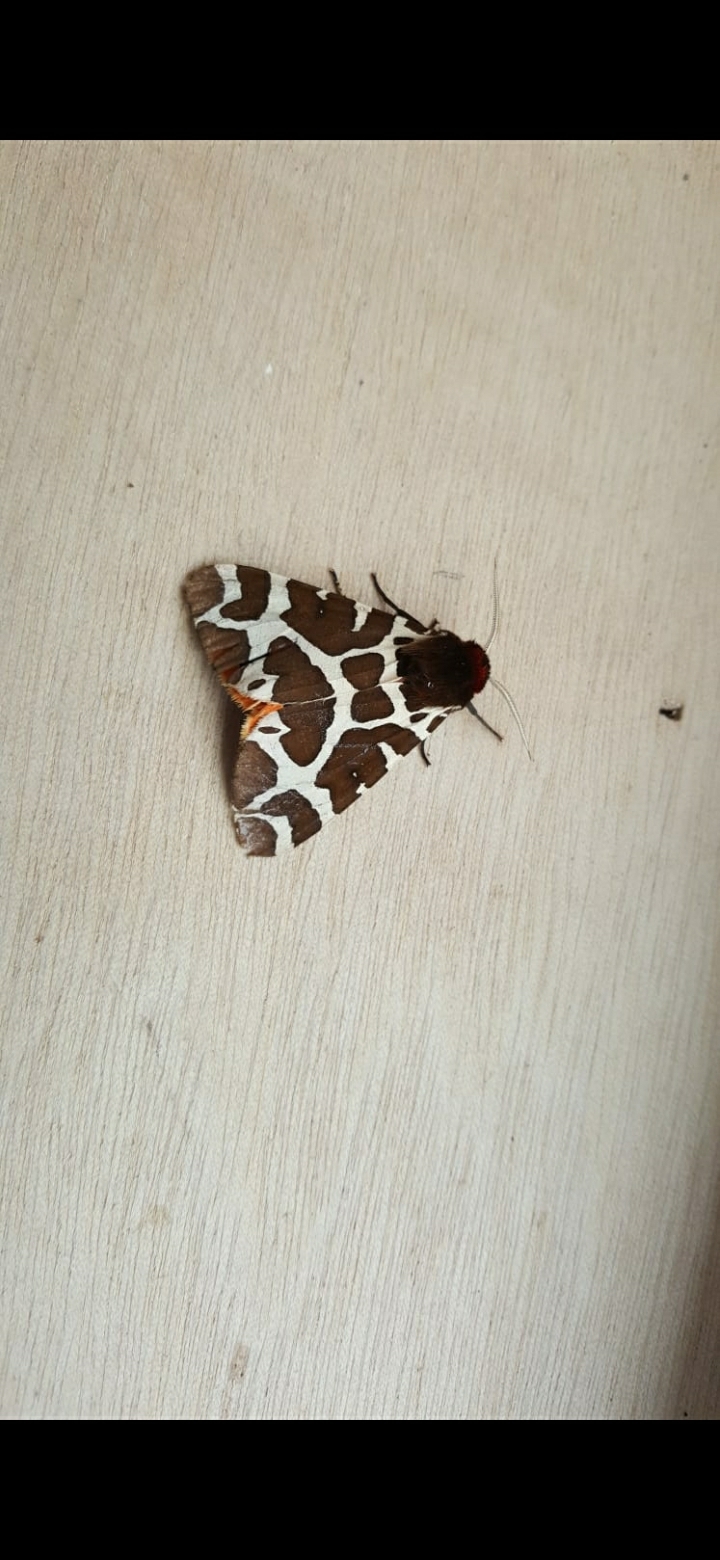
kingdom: Animalia
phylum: Arthropoda
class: Insecta
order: Lepidoptera
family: Erebidae
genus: Arctia
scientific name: Arctia caja
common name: Garden tiger
